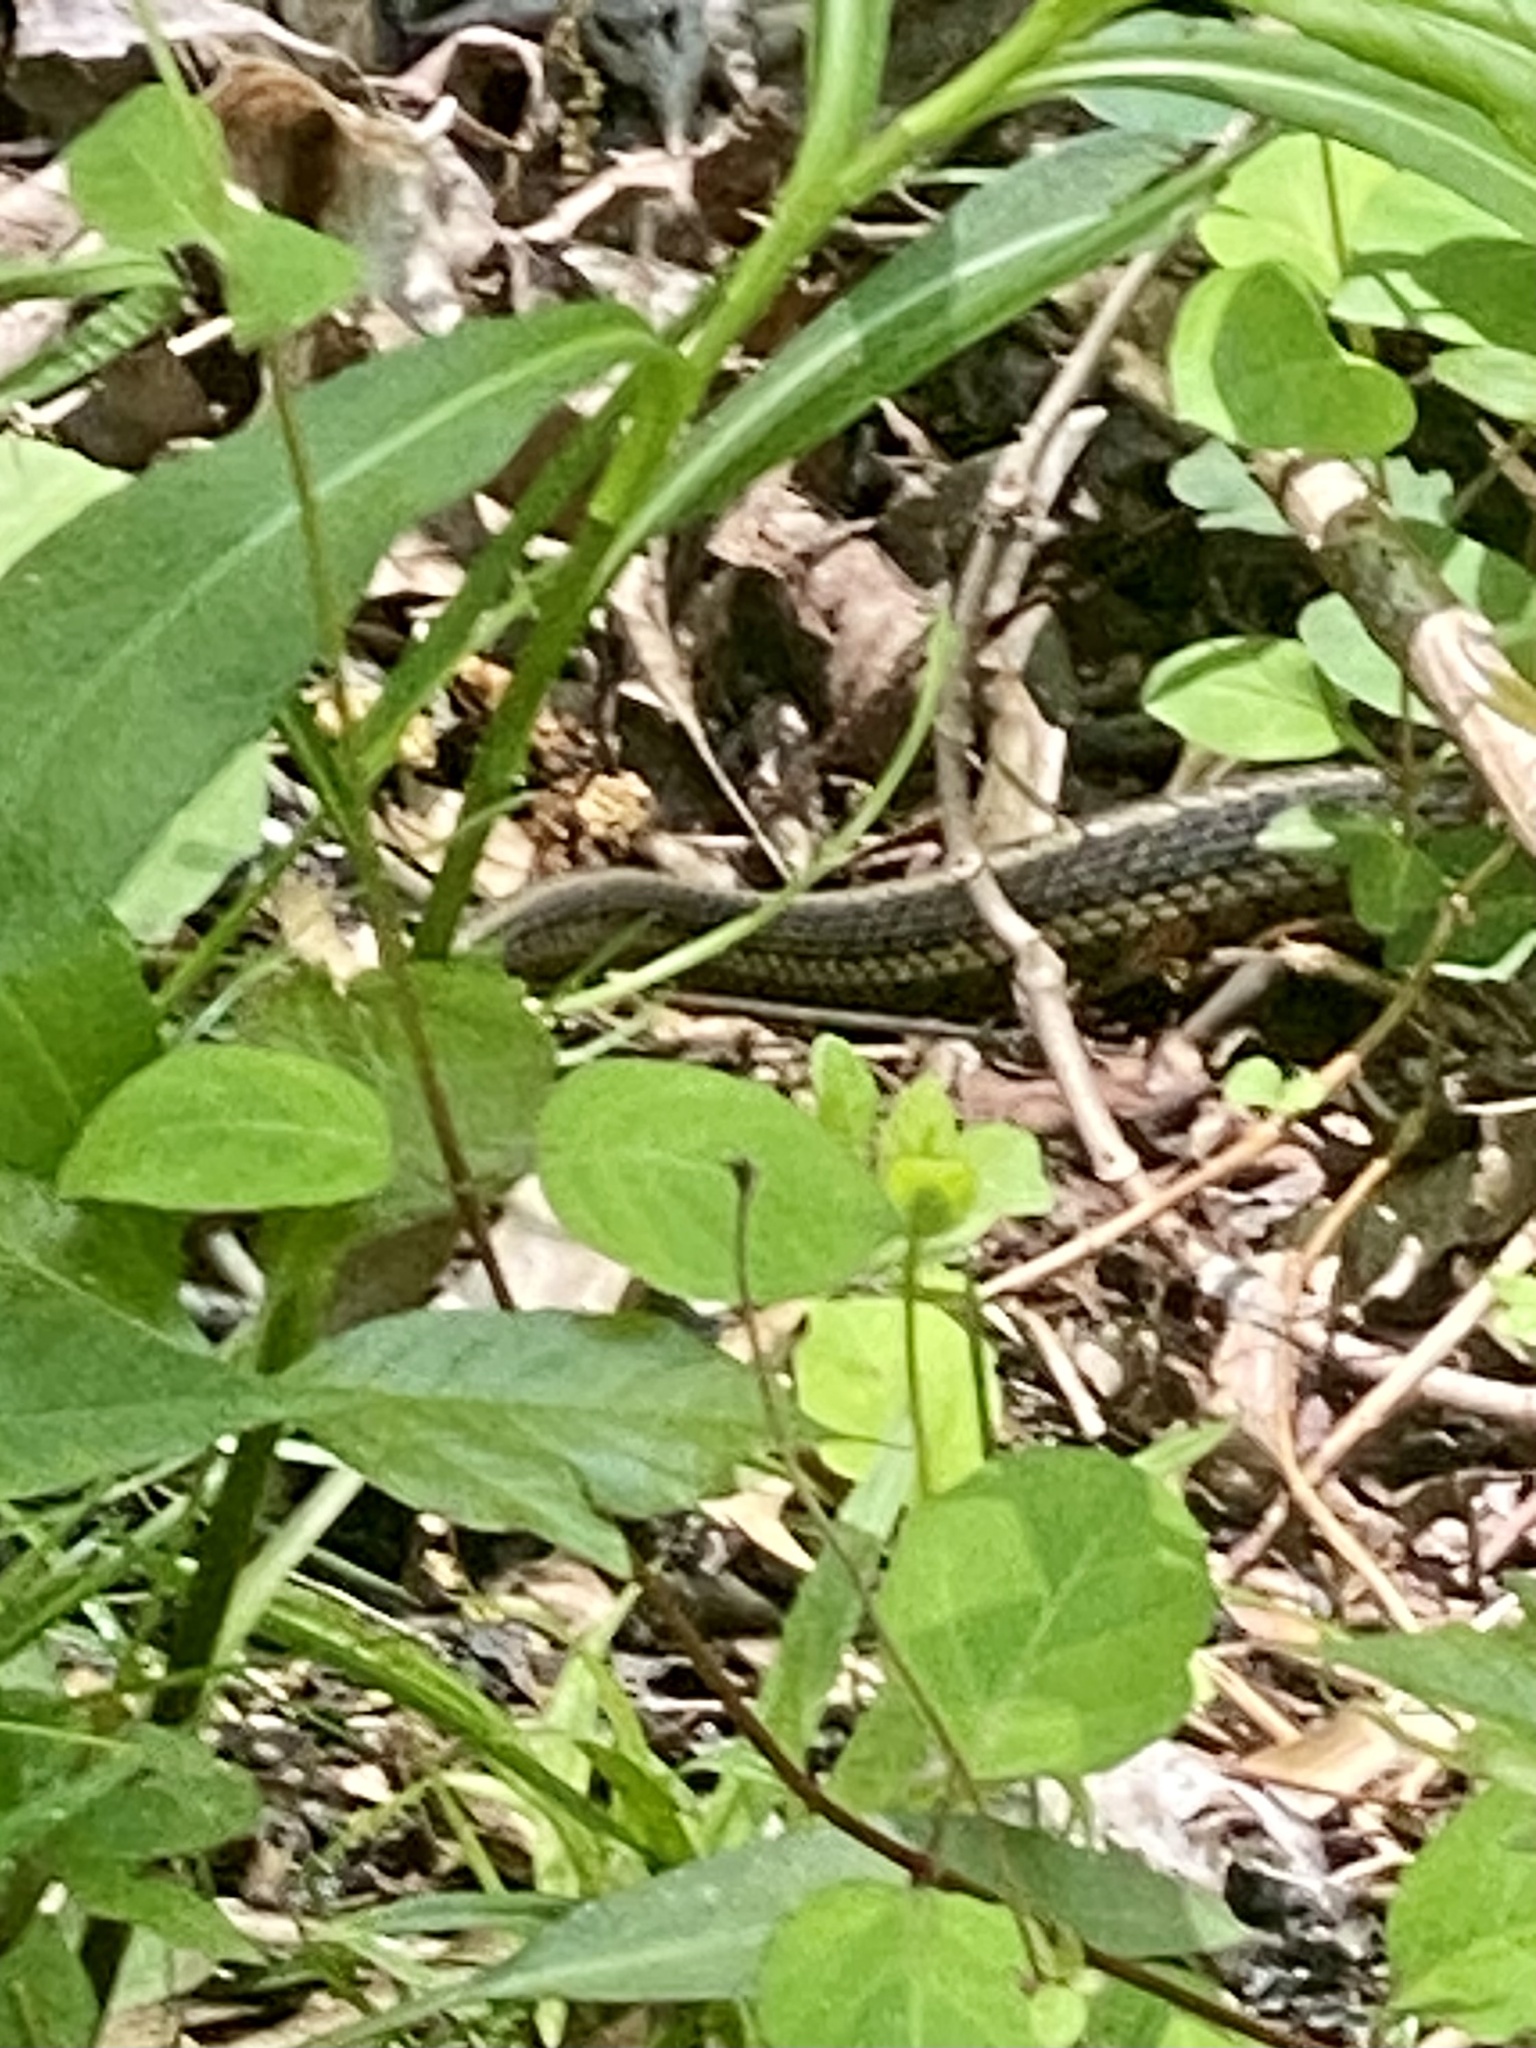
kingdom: Animalia
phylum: Chordata
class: Squamata
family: Colubridae
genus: Thamnophis
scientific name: Thamnophis sirtalis
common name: Common garter snake
